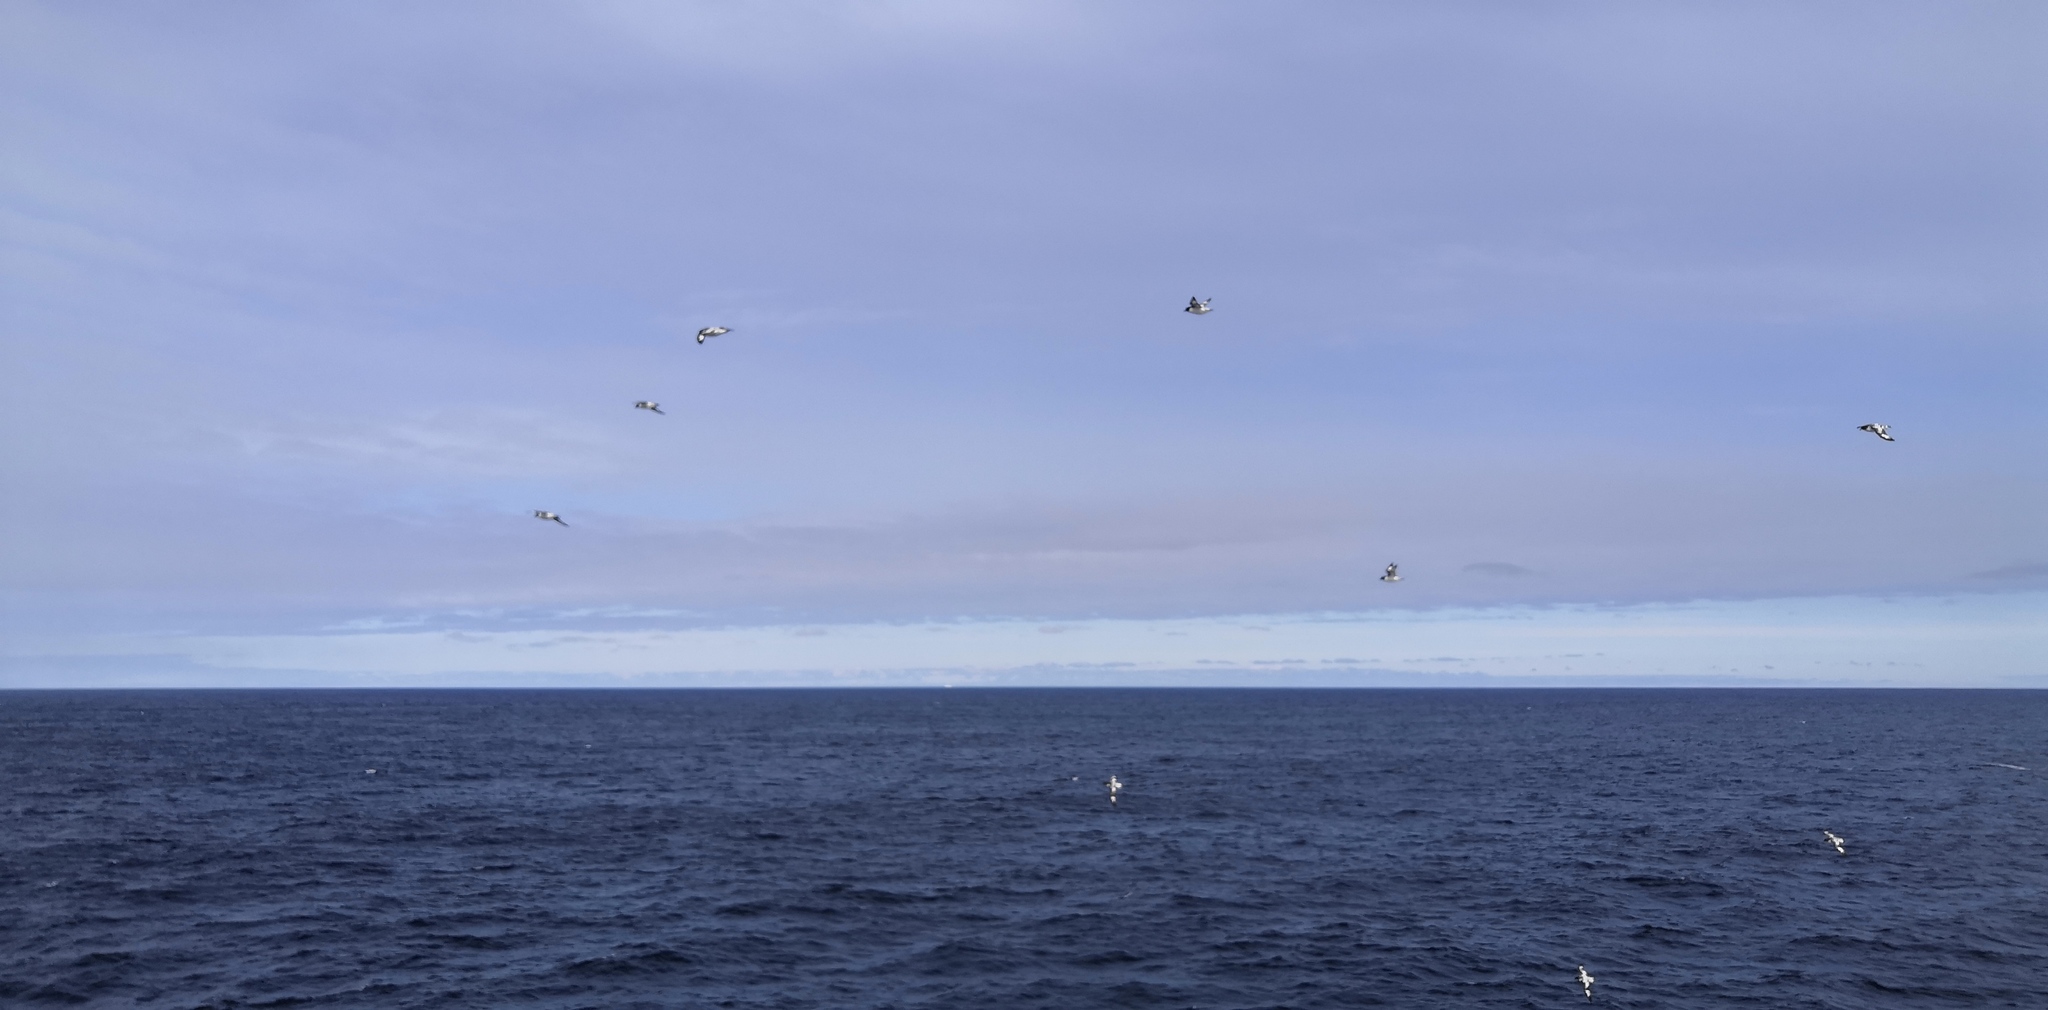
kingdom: Animalia
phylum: Chordata
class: Aves
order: Procellariiformes
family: Procellariidae
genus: Daption
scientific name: Daption capense
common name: Cape petrel
